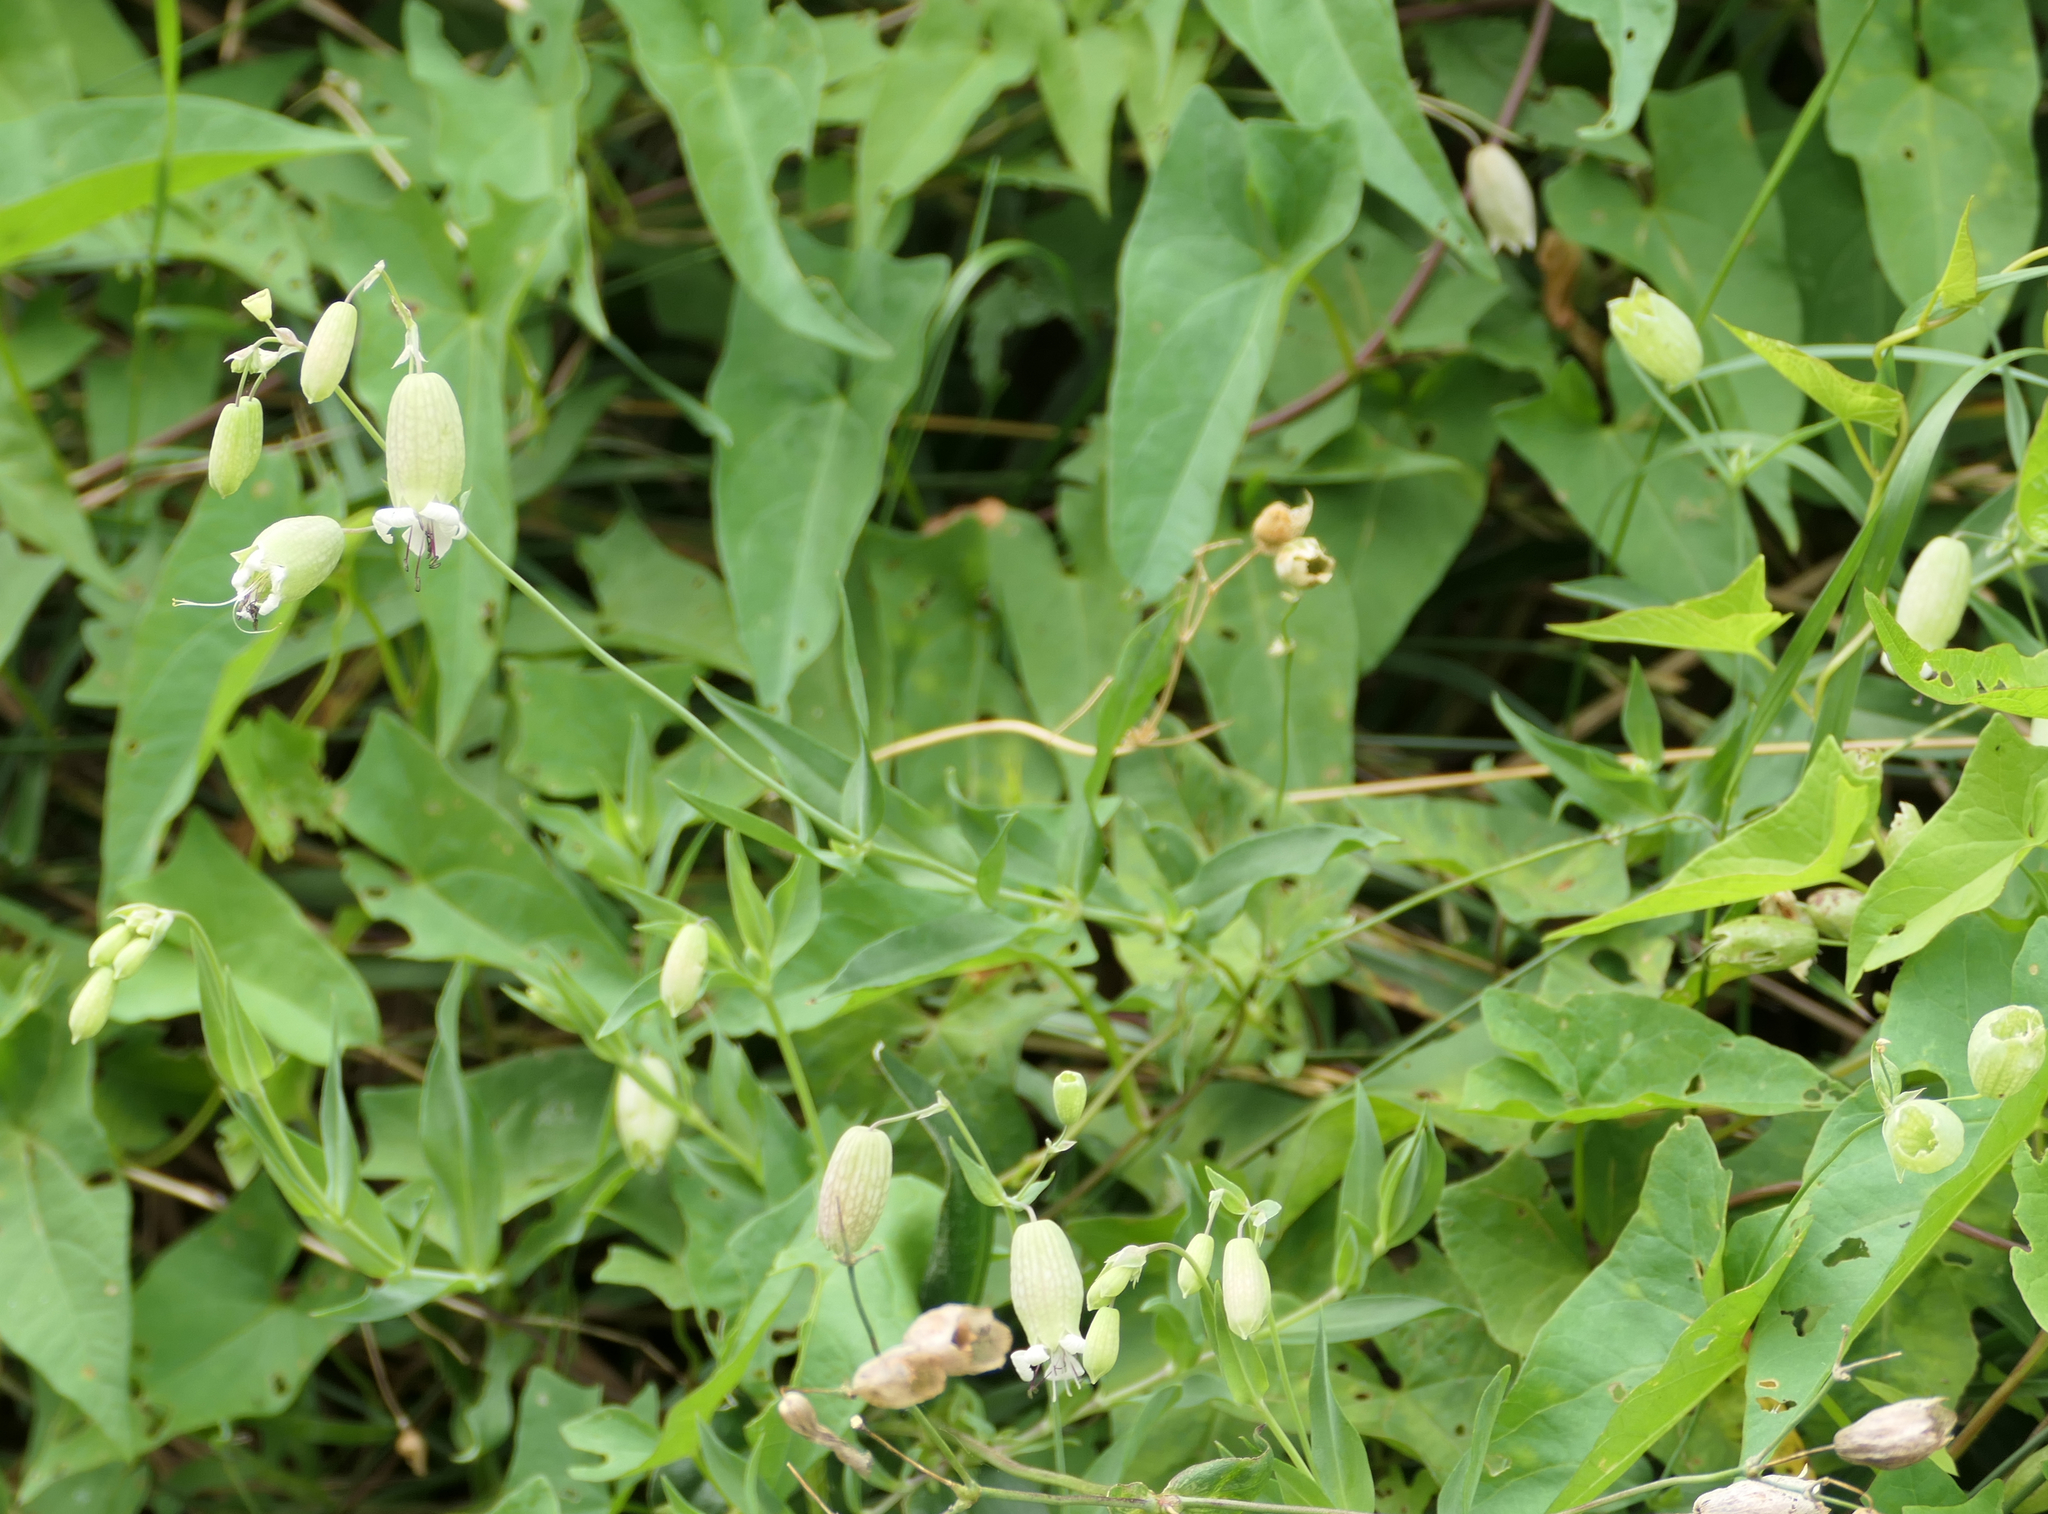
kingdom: Plantae
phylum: Tracheophyta
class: Magnoliopsida
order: Caryophyllales
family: Caryophyllaceae
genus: Silene
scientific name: Silene vulgaris
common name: Bladder campion
